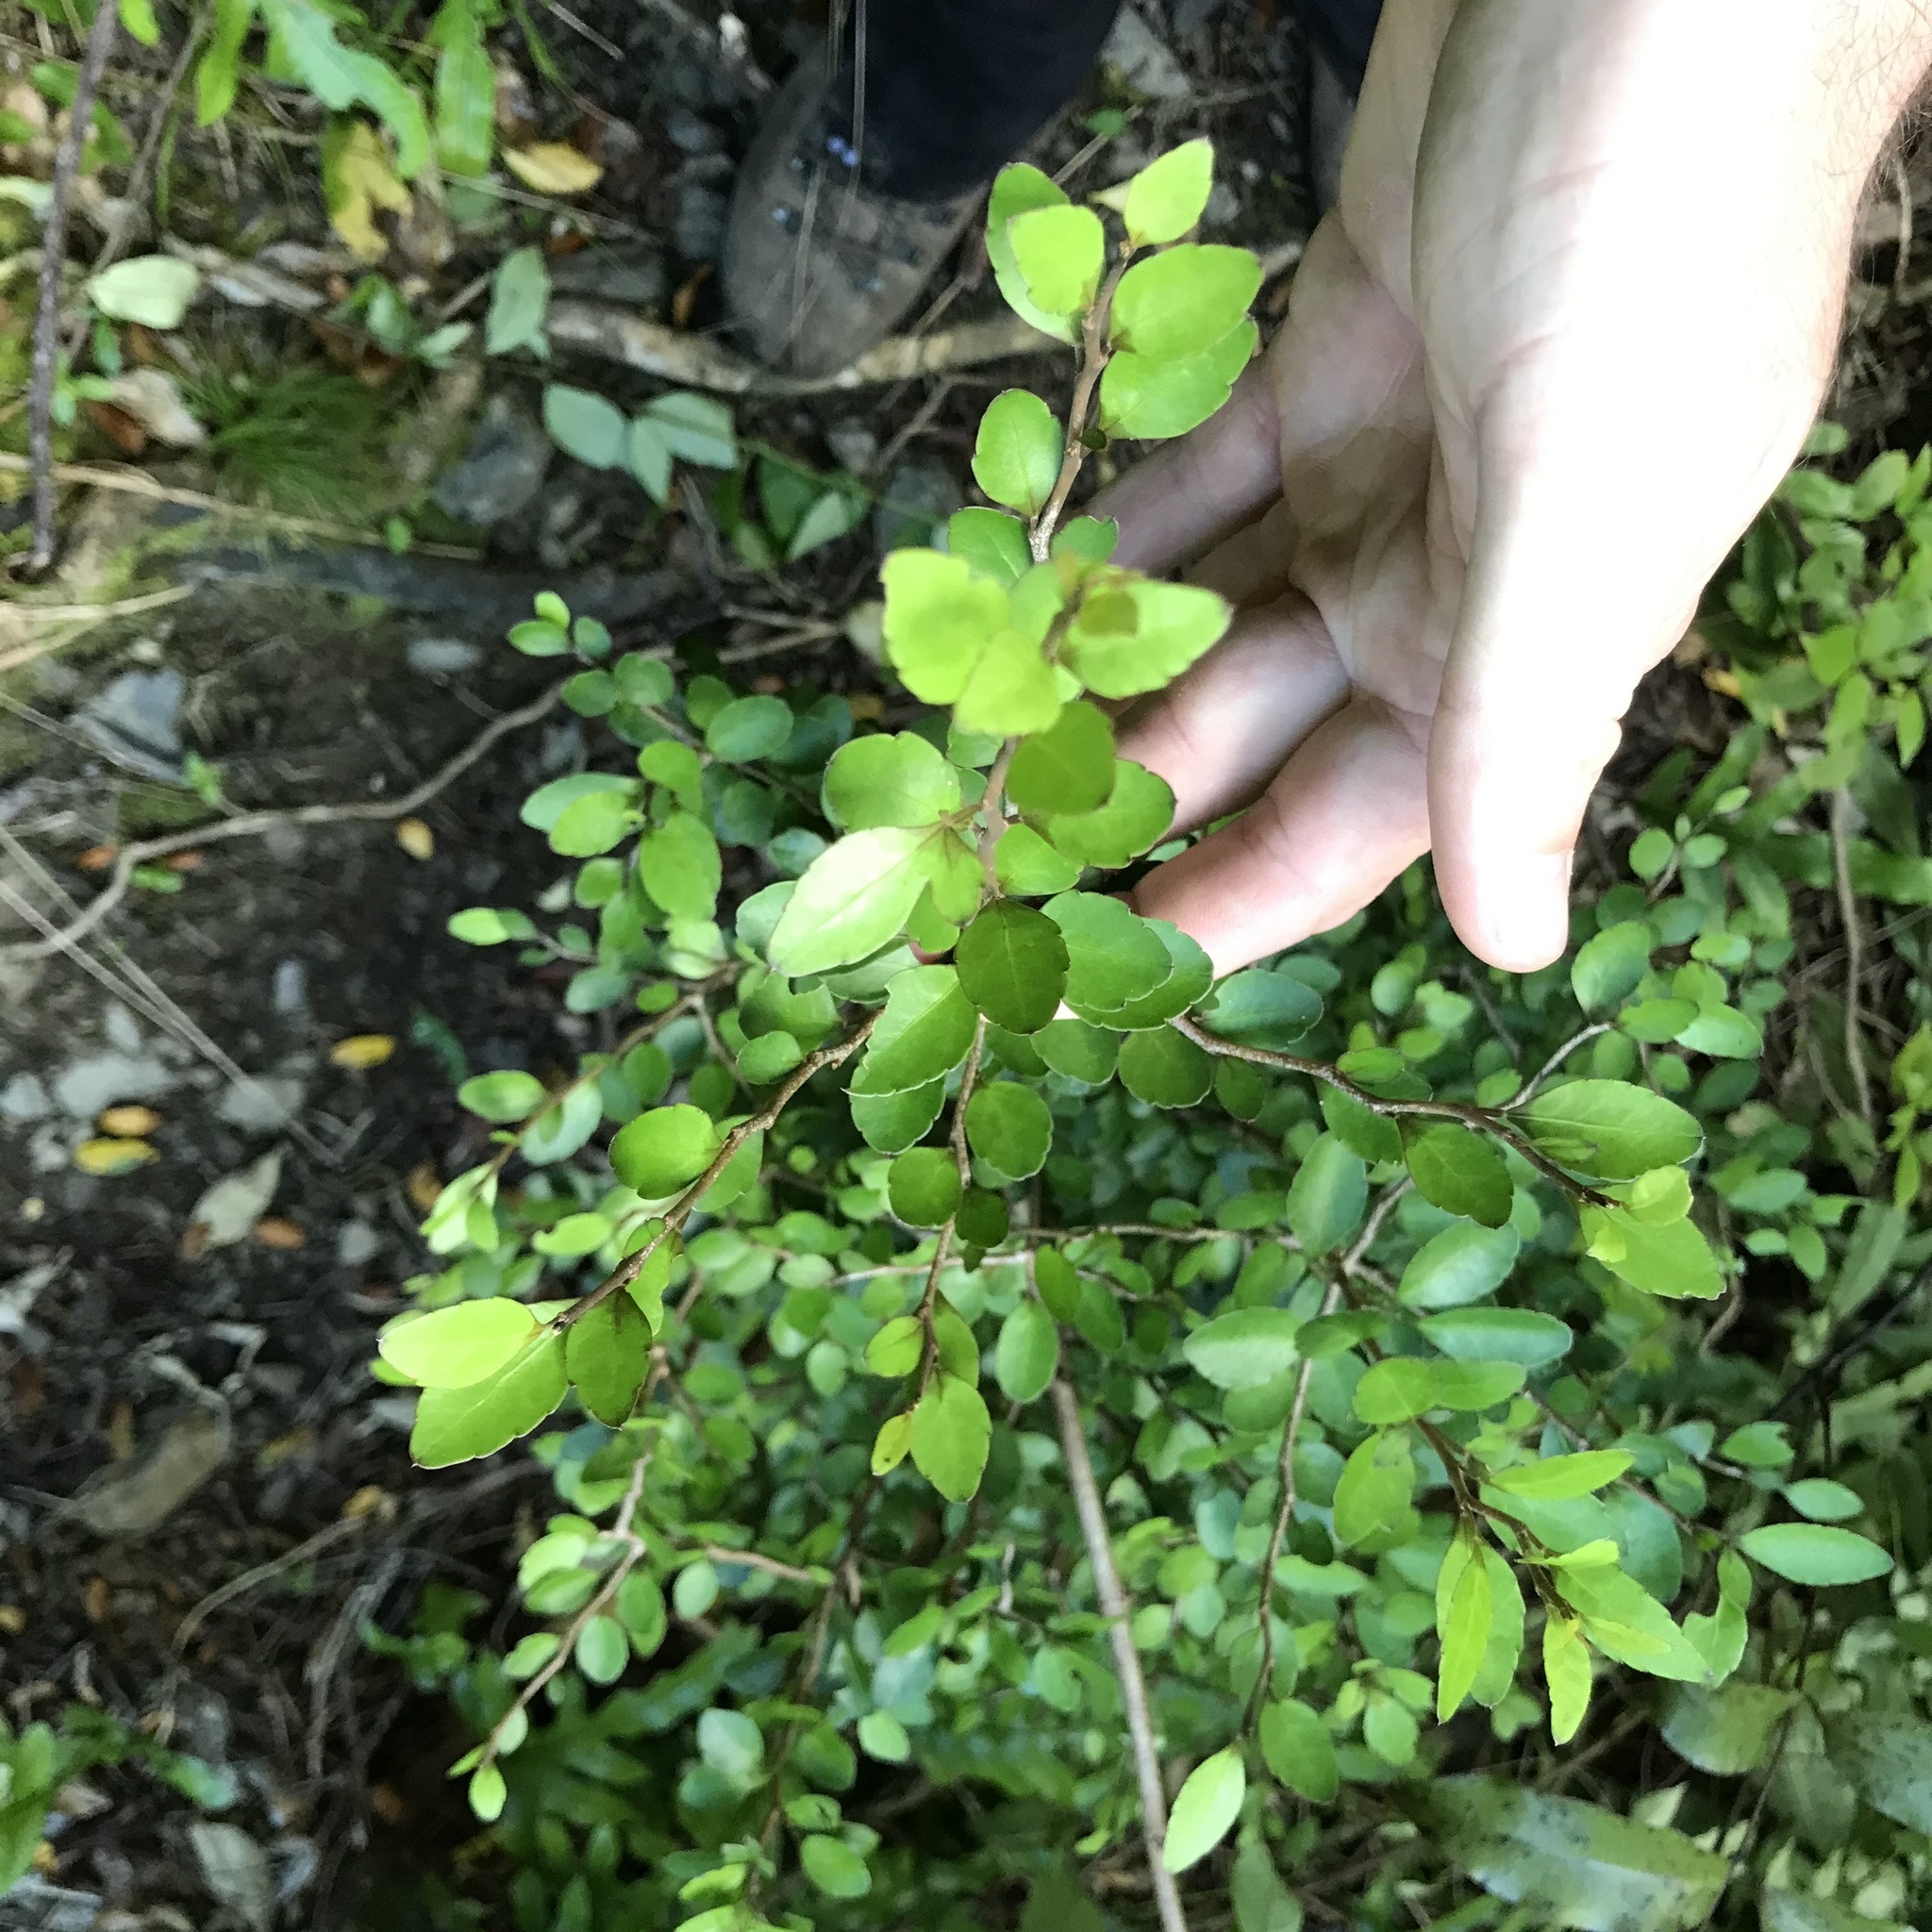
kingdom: Plantae
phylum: Tracheophyta
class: Magnoliopsida
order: Apiales
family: Araliaceae
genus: Raukaua
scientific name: Raukaua anomalus
